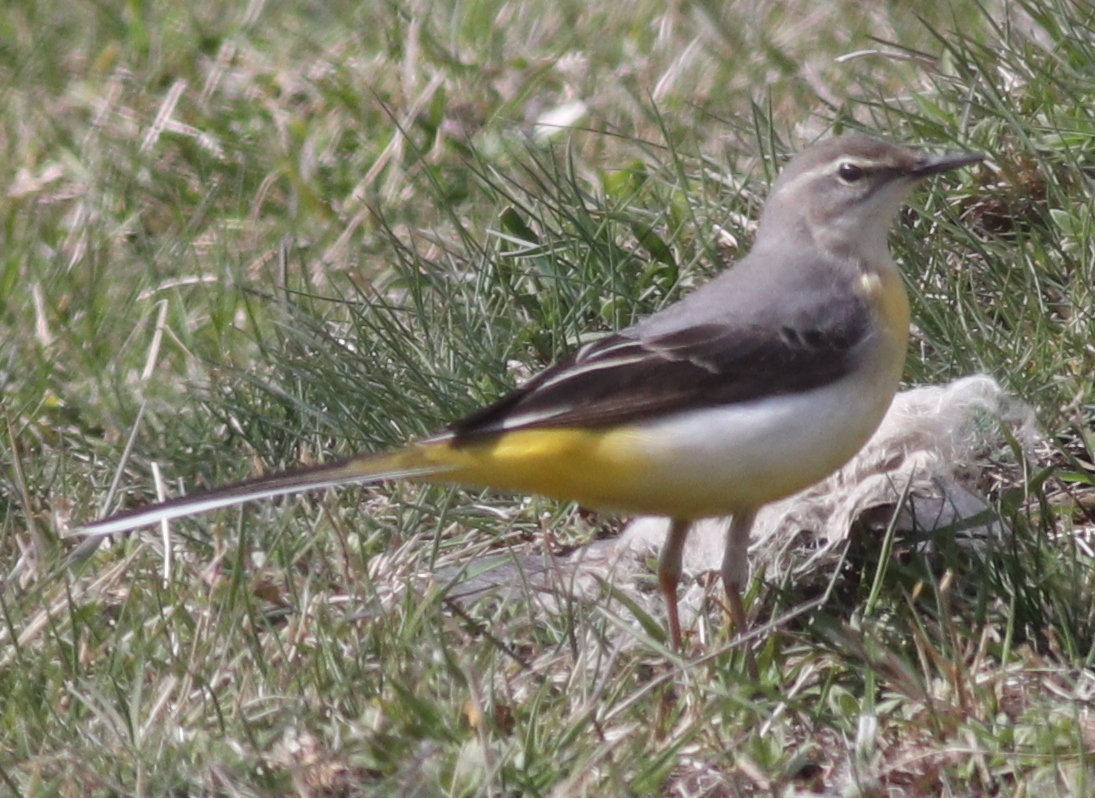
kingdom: Animalia
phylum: Chordata
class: Aves
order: Passeriformes
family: Motacillidae
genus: Motacilla
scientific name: Motacilla cinerea
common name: Grey wagtail
